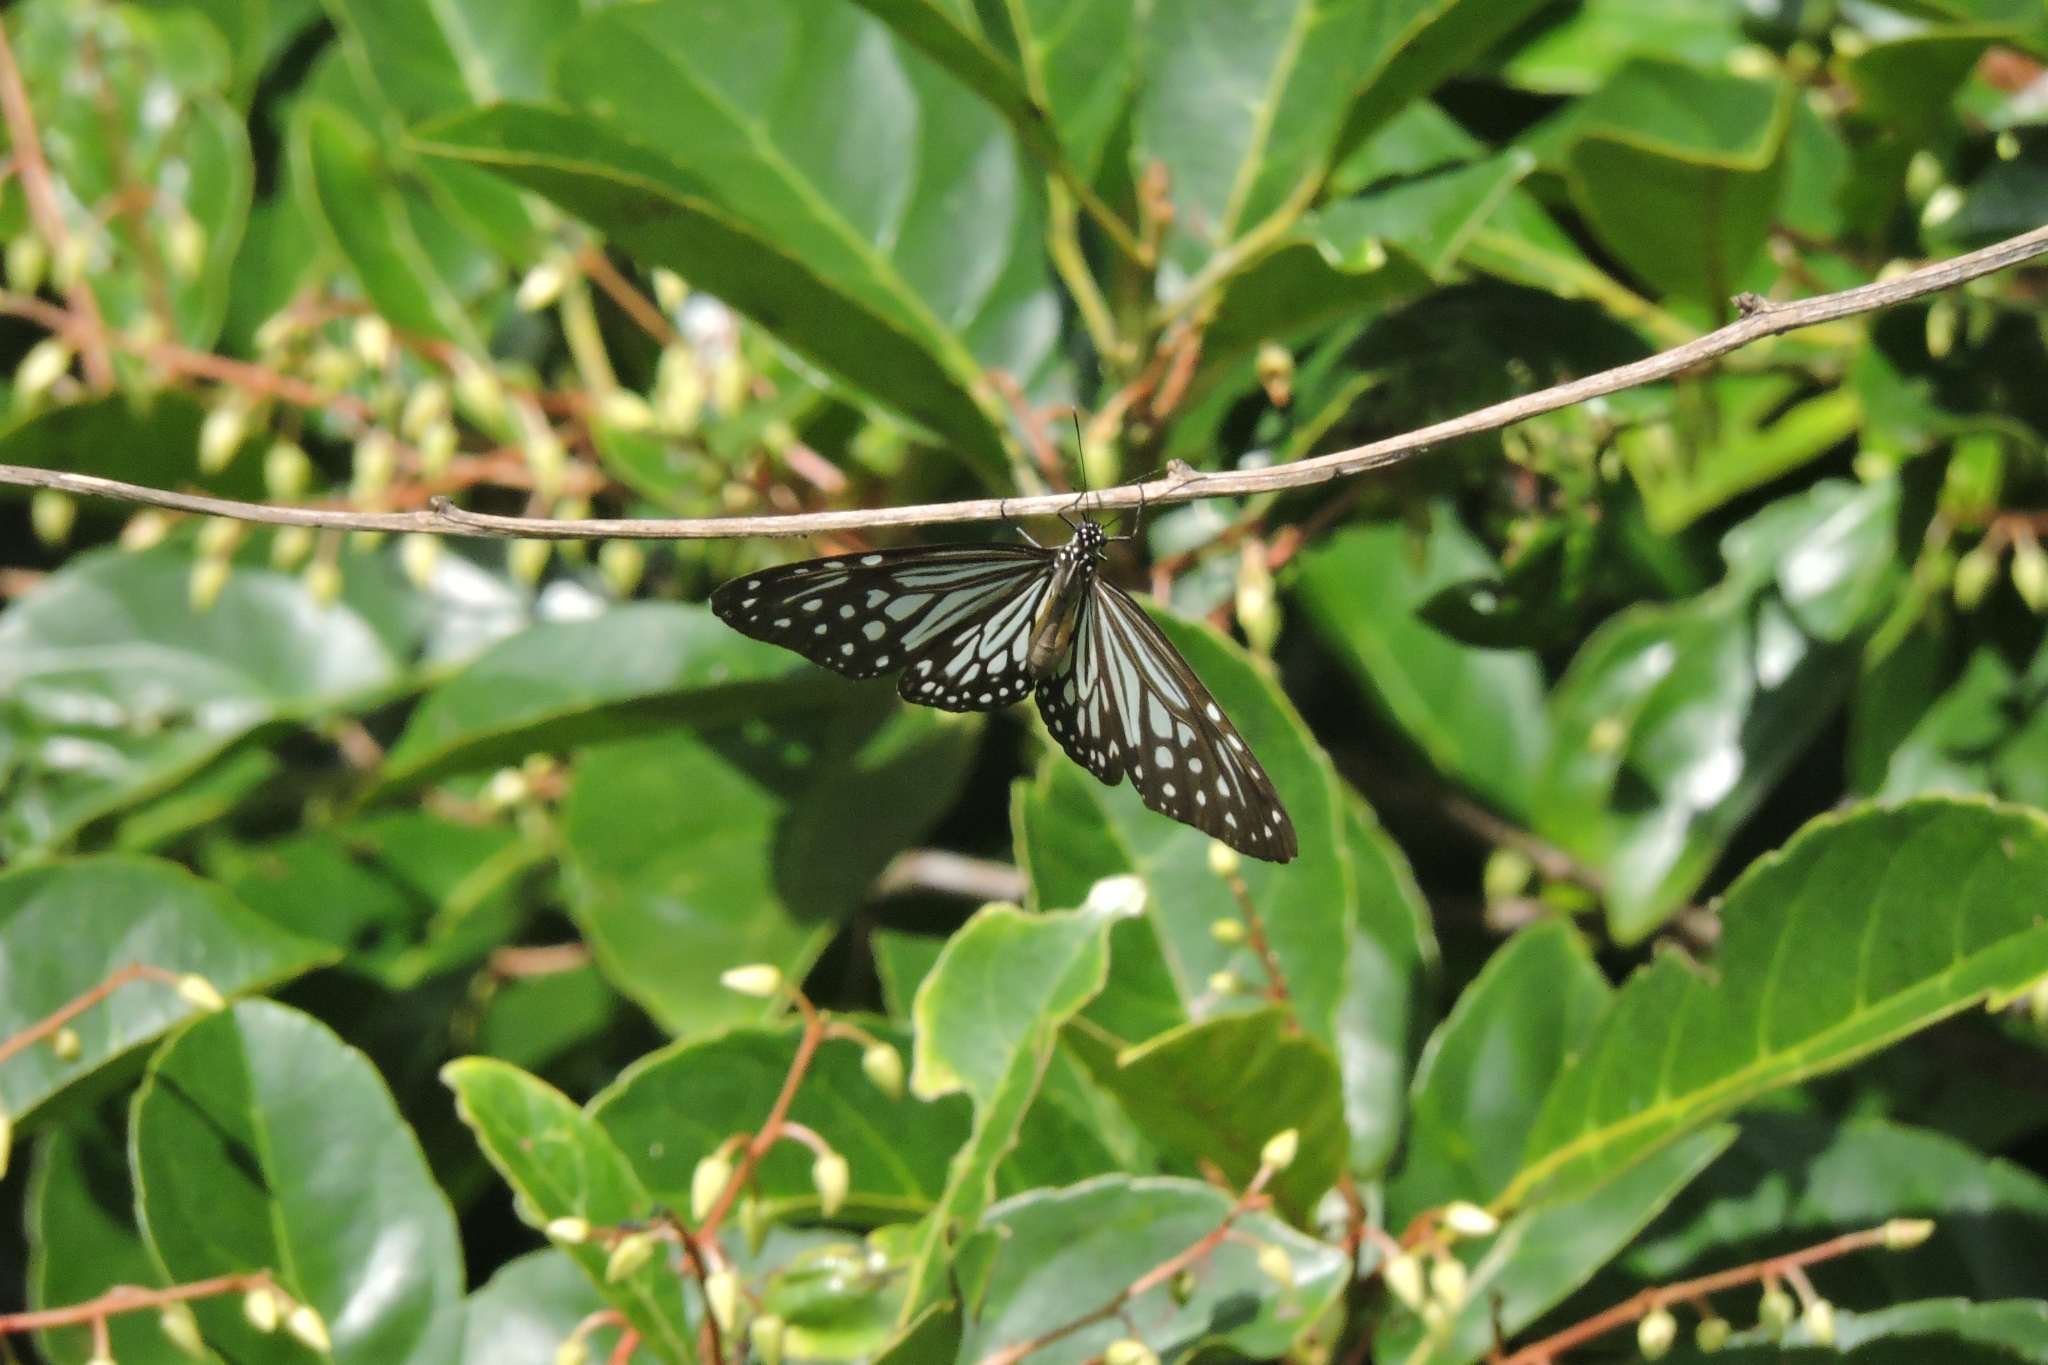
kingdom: Animalia
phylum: Arthropoda
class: Insecta
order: Lepidoptera
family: Nymphalidae
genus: Parantica
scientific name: Parantica aglea
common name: Glassy tiger
